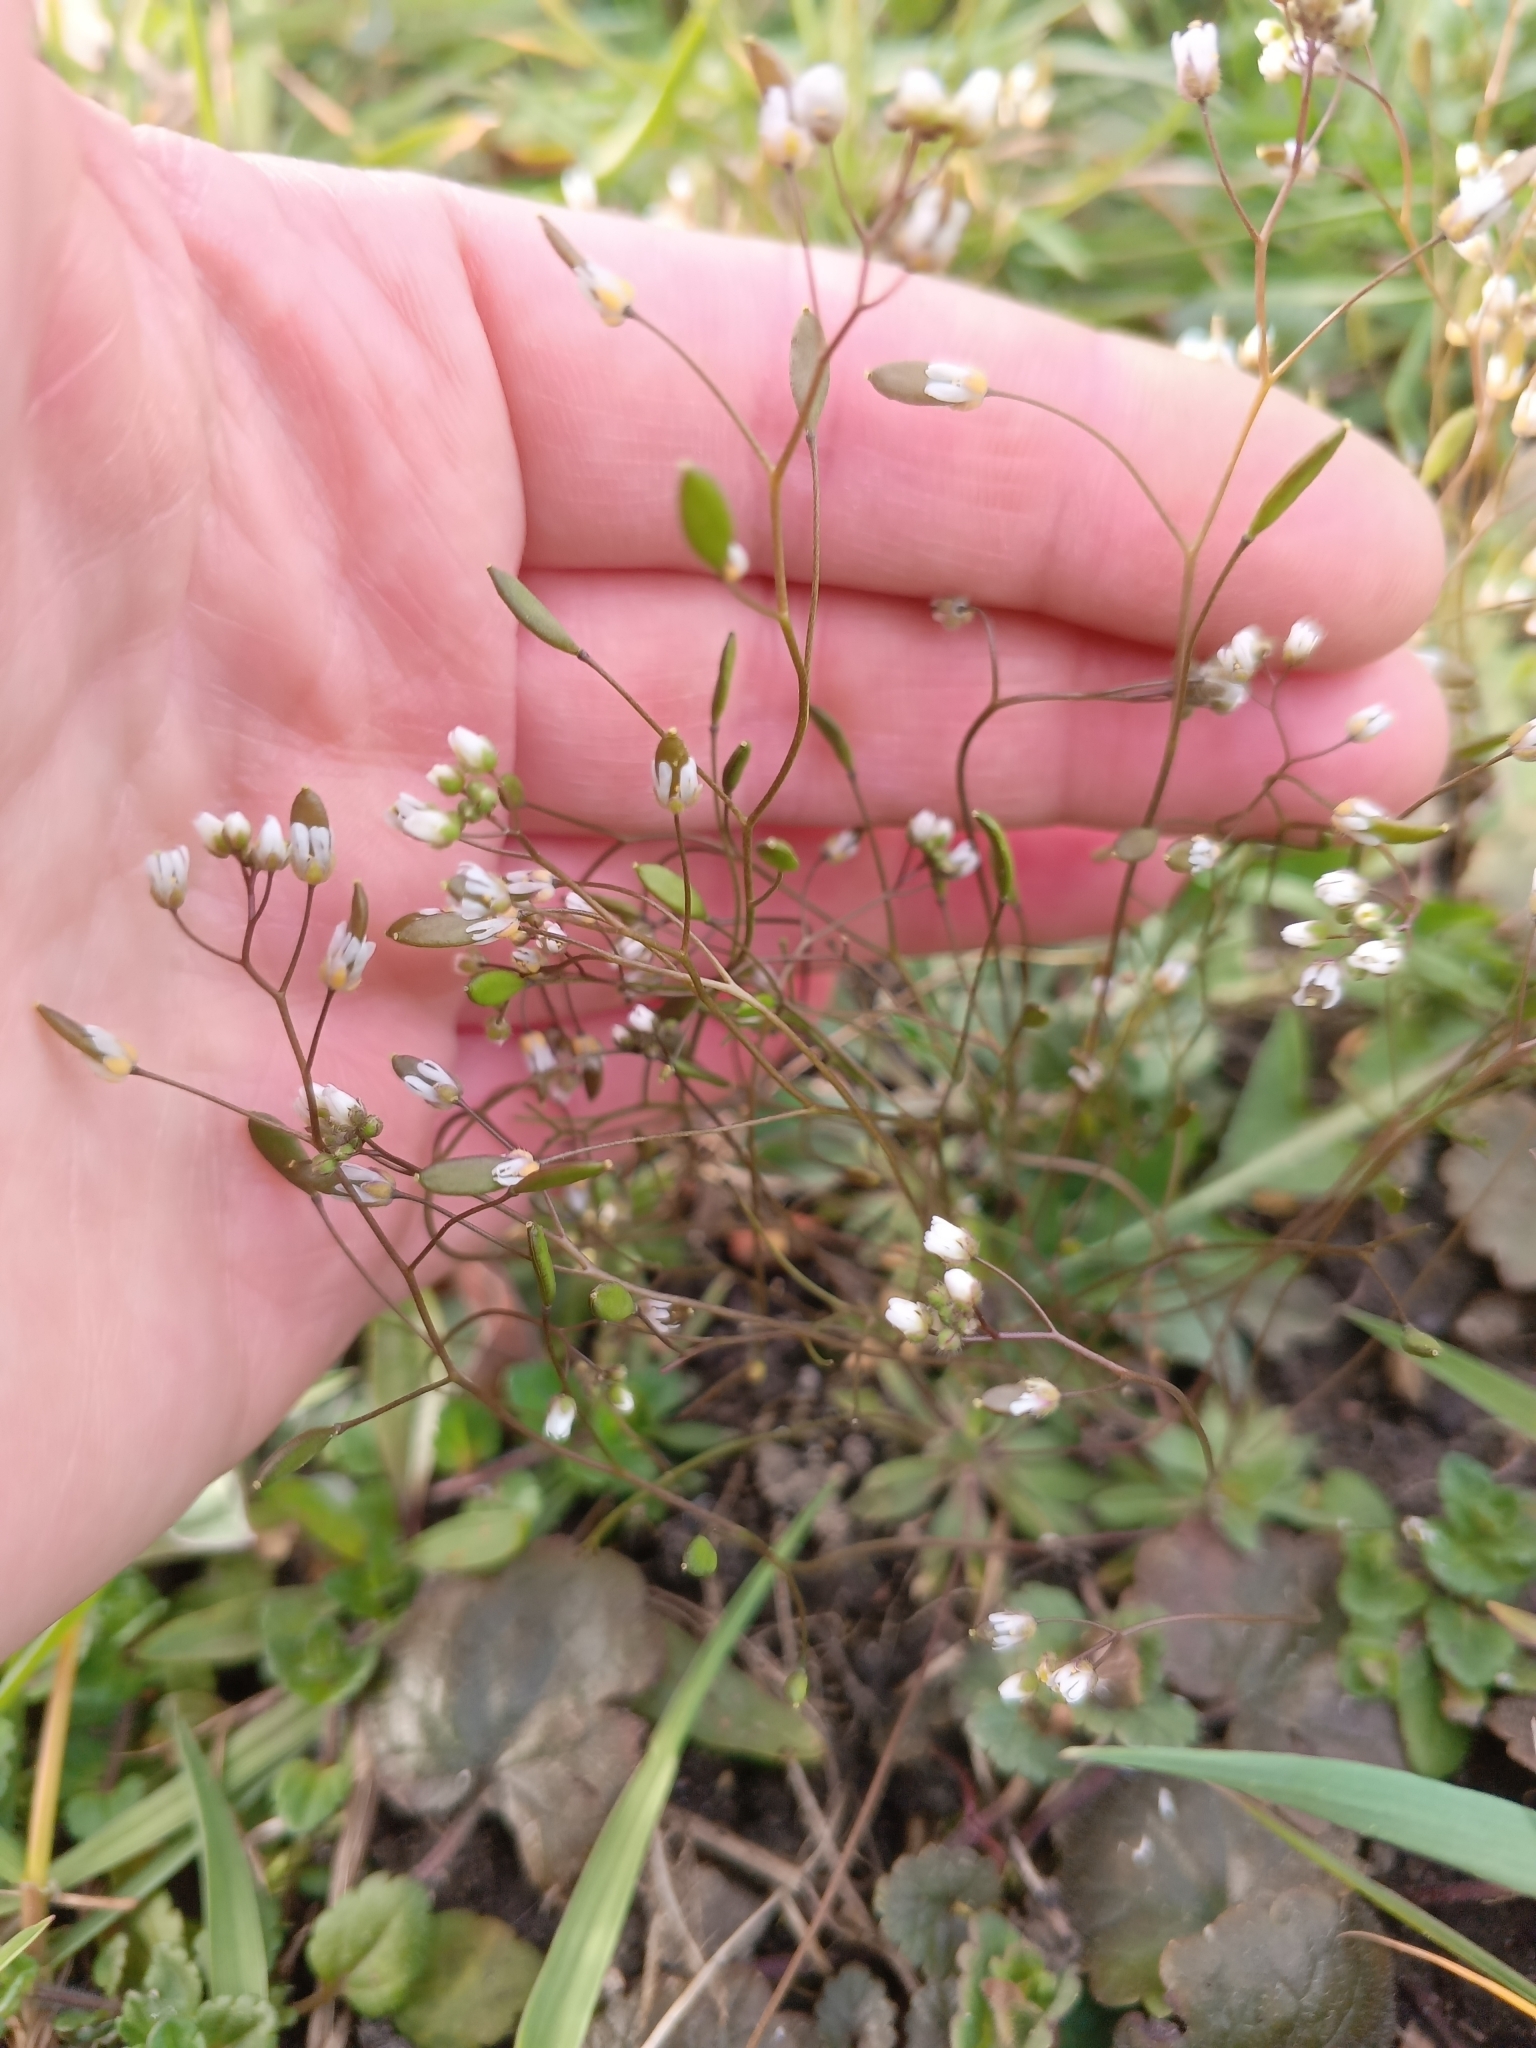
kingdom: Plantae
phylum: Tracheophyta
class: Magnoliopsida
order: Brassicales
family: Brassicaceae
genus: Draba
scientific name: Draba verna
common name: Spring draba
